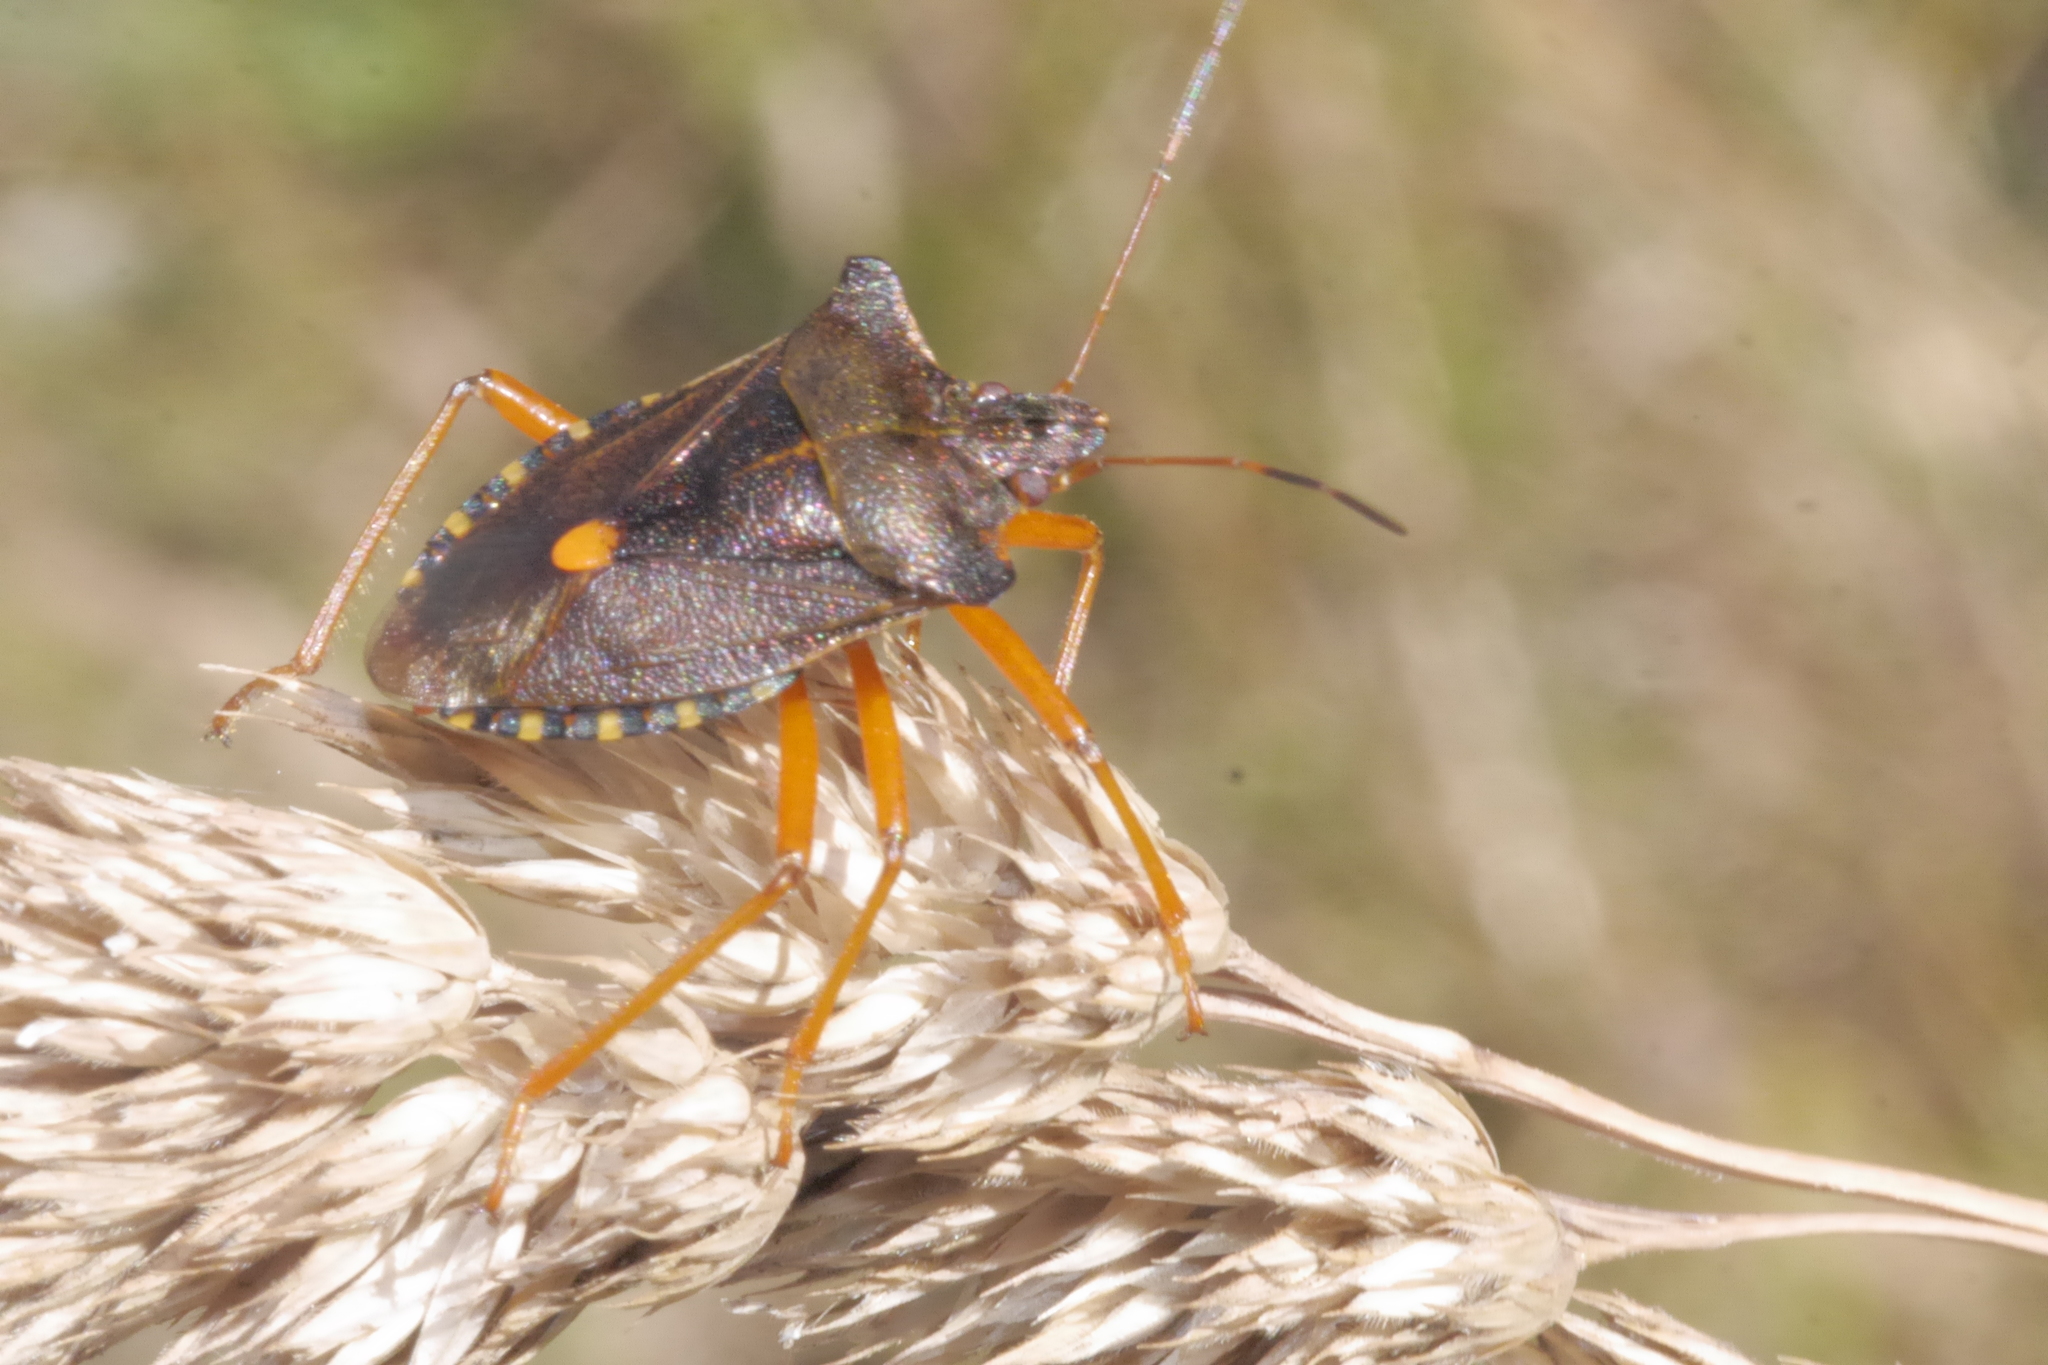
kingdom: Animalia
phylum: Arthropoda
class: Insecta
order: Hemiptera
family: Pentatomidae
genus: Pentatoma
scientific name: Pentatoma rufipes
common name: Forest bug
